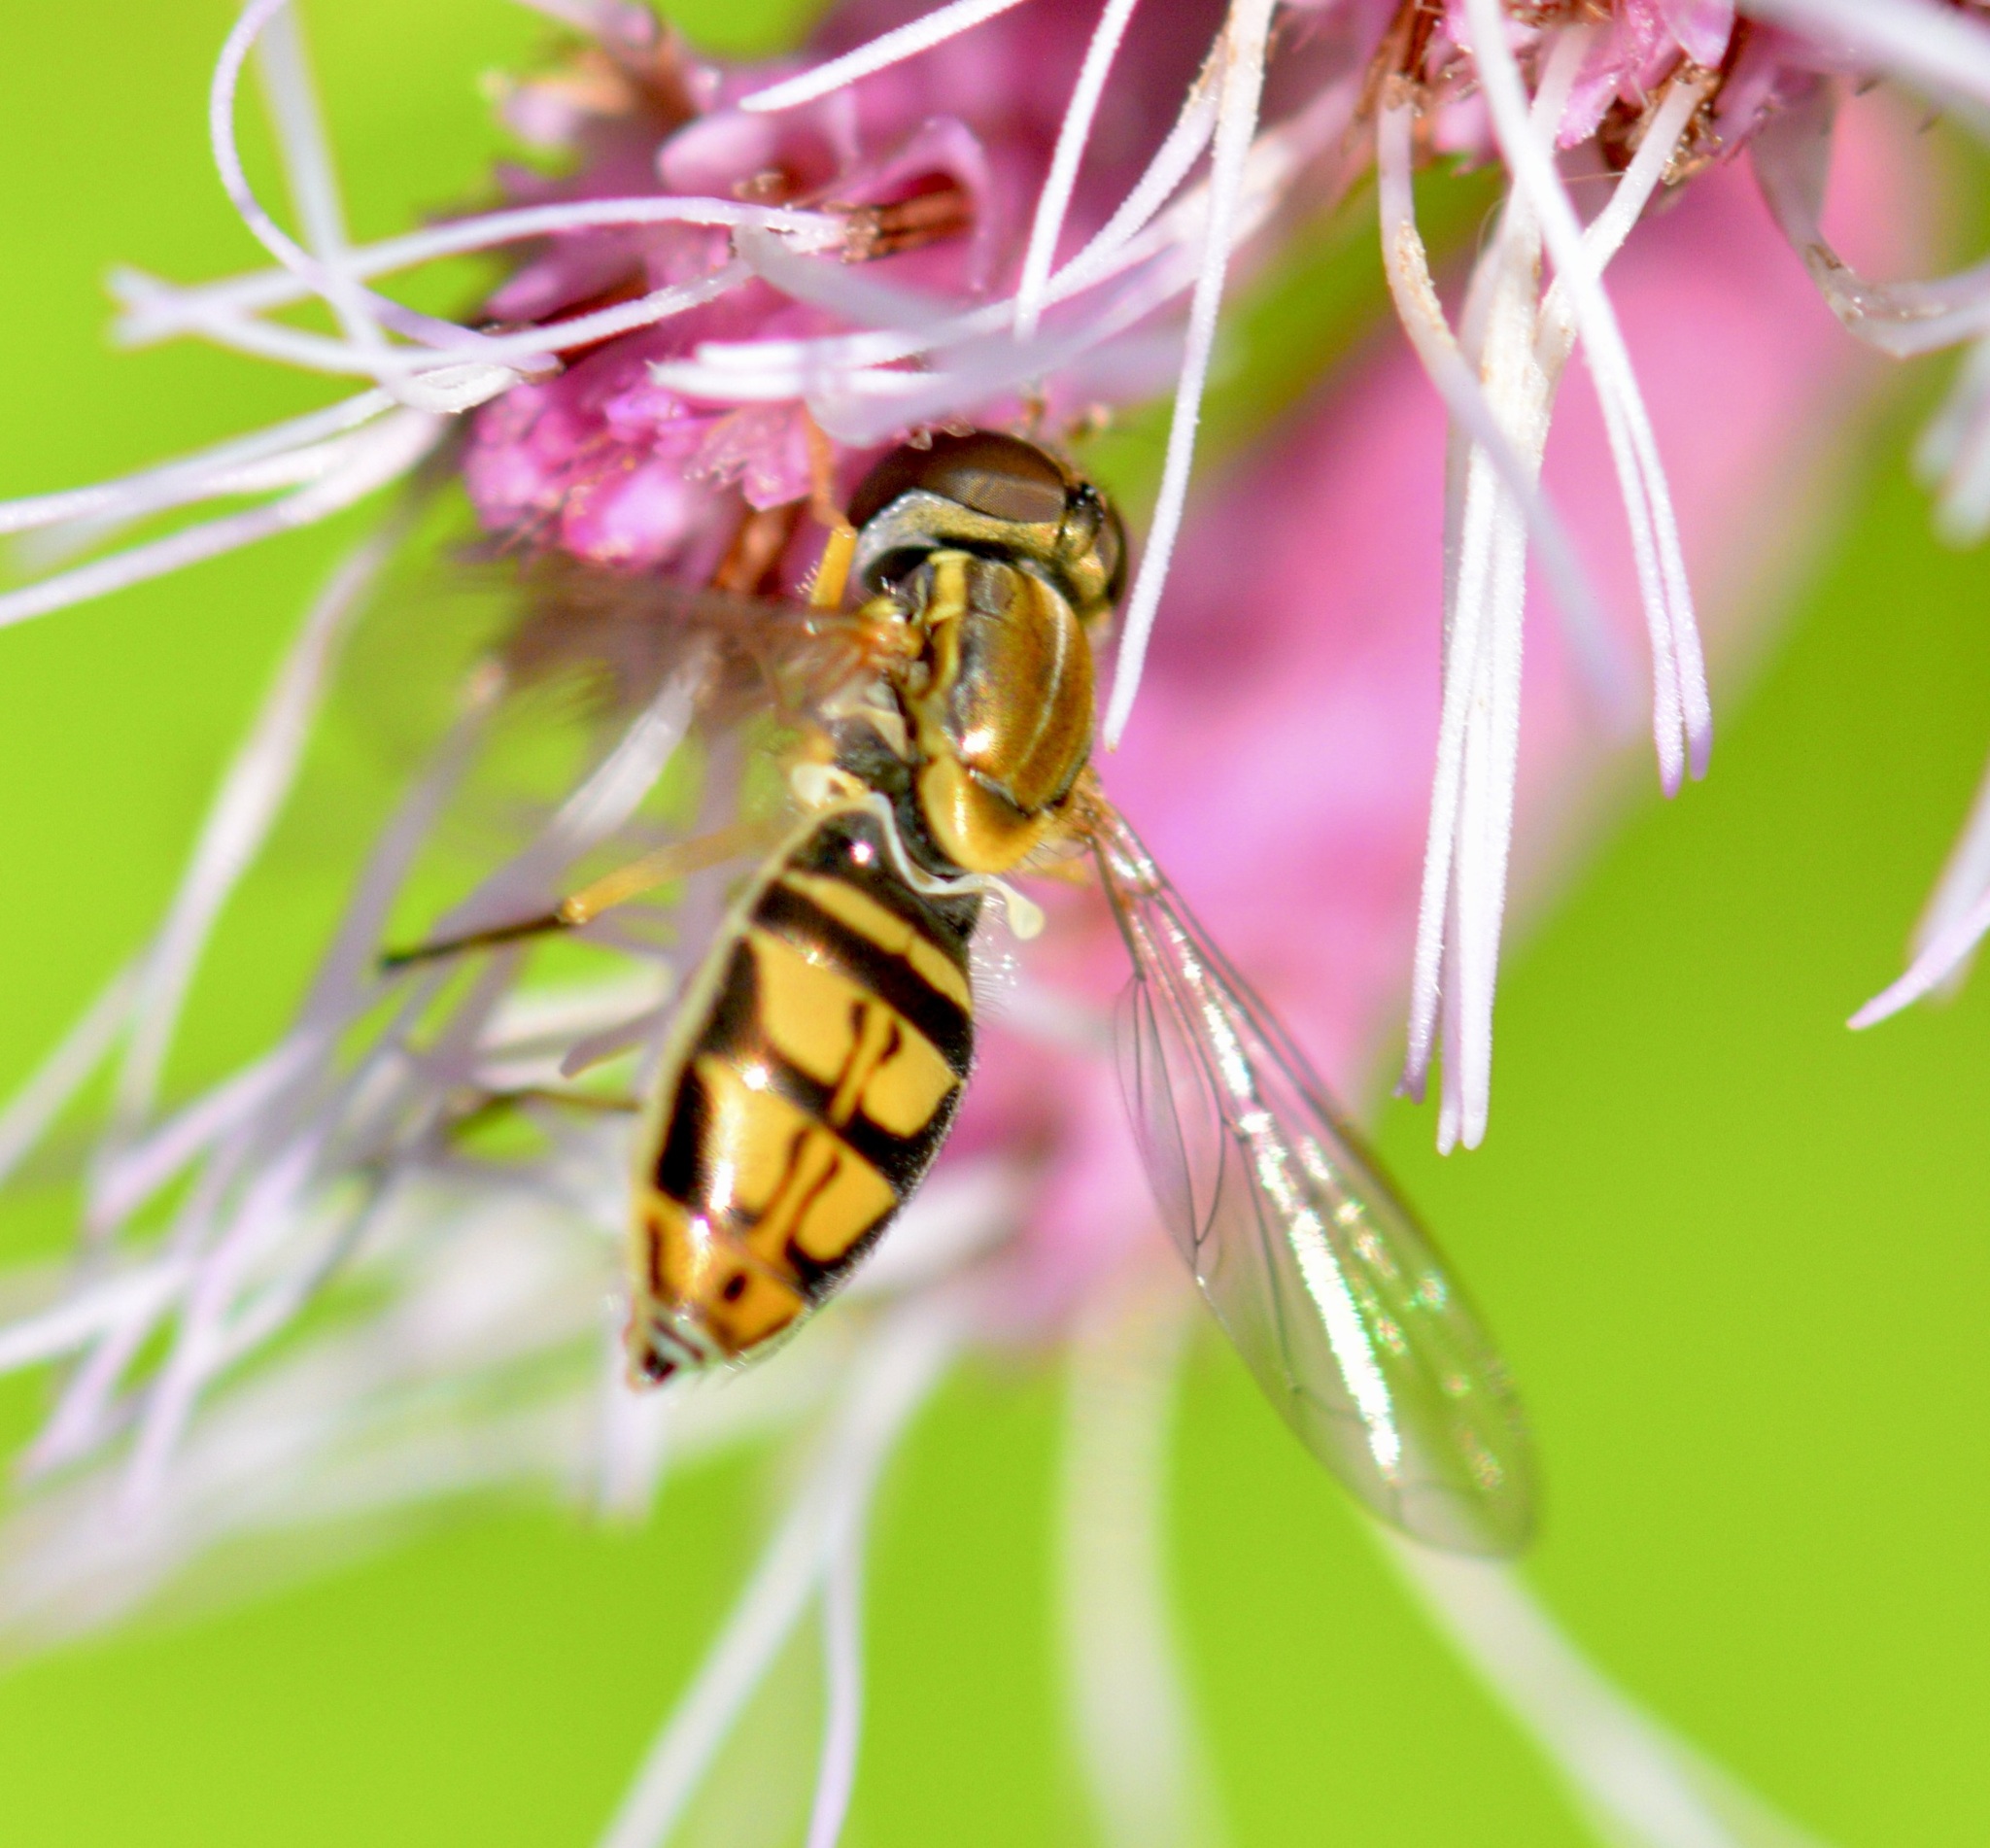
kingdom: Animalia
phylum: Arthropoda
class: Insecta
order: Diptera
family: Syrphidae
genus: Toxomerus
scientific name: Toxomerus marginatus
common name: Syrphid fly
